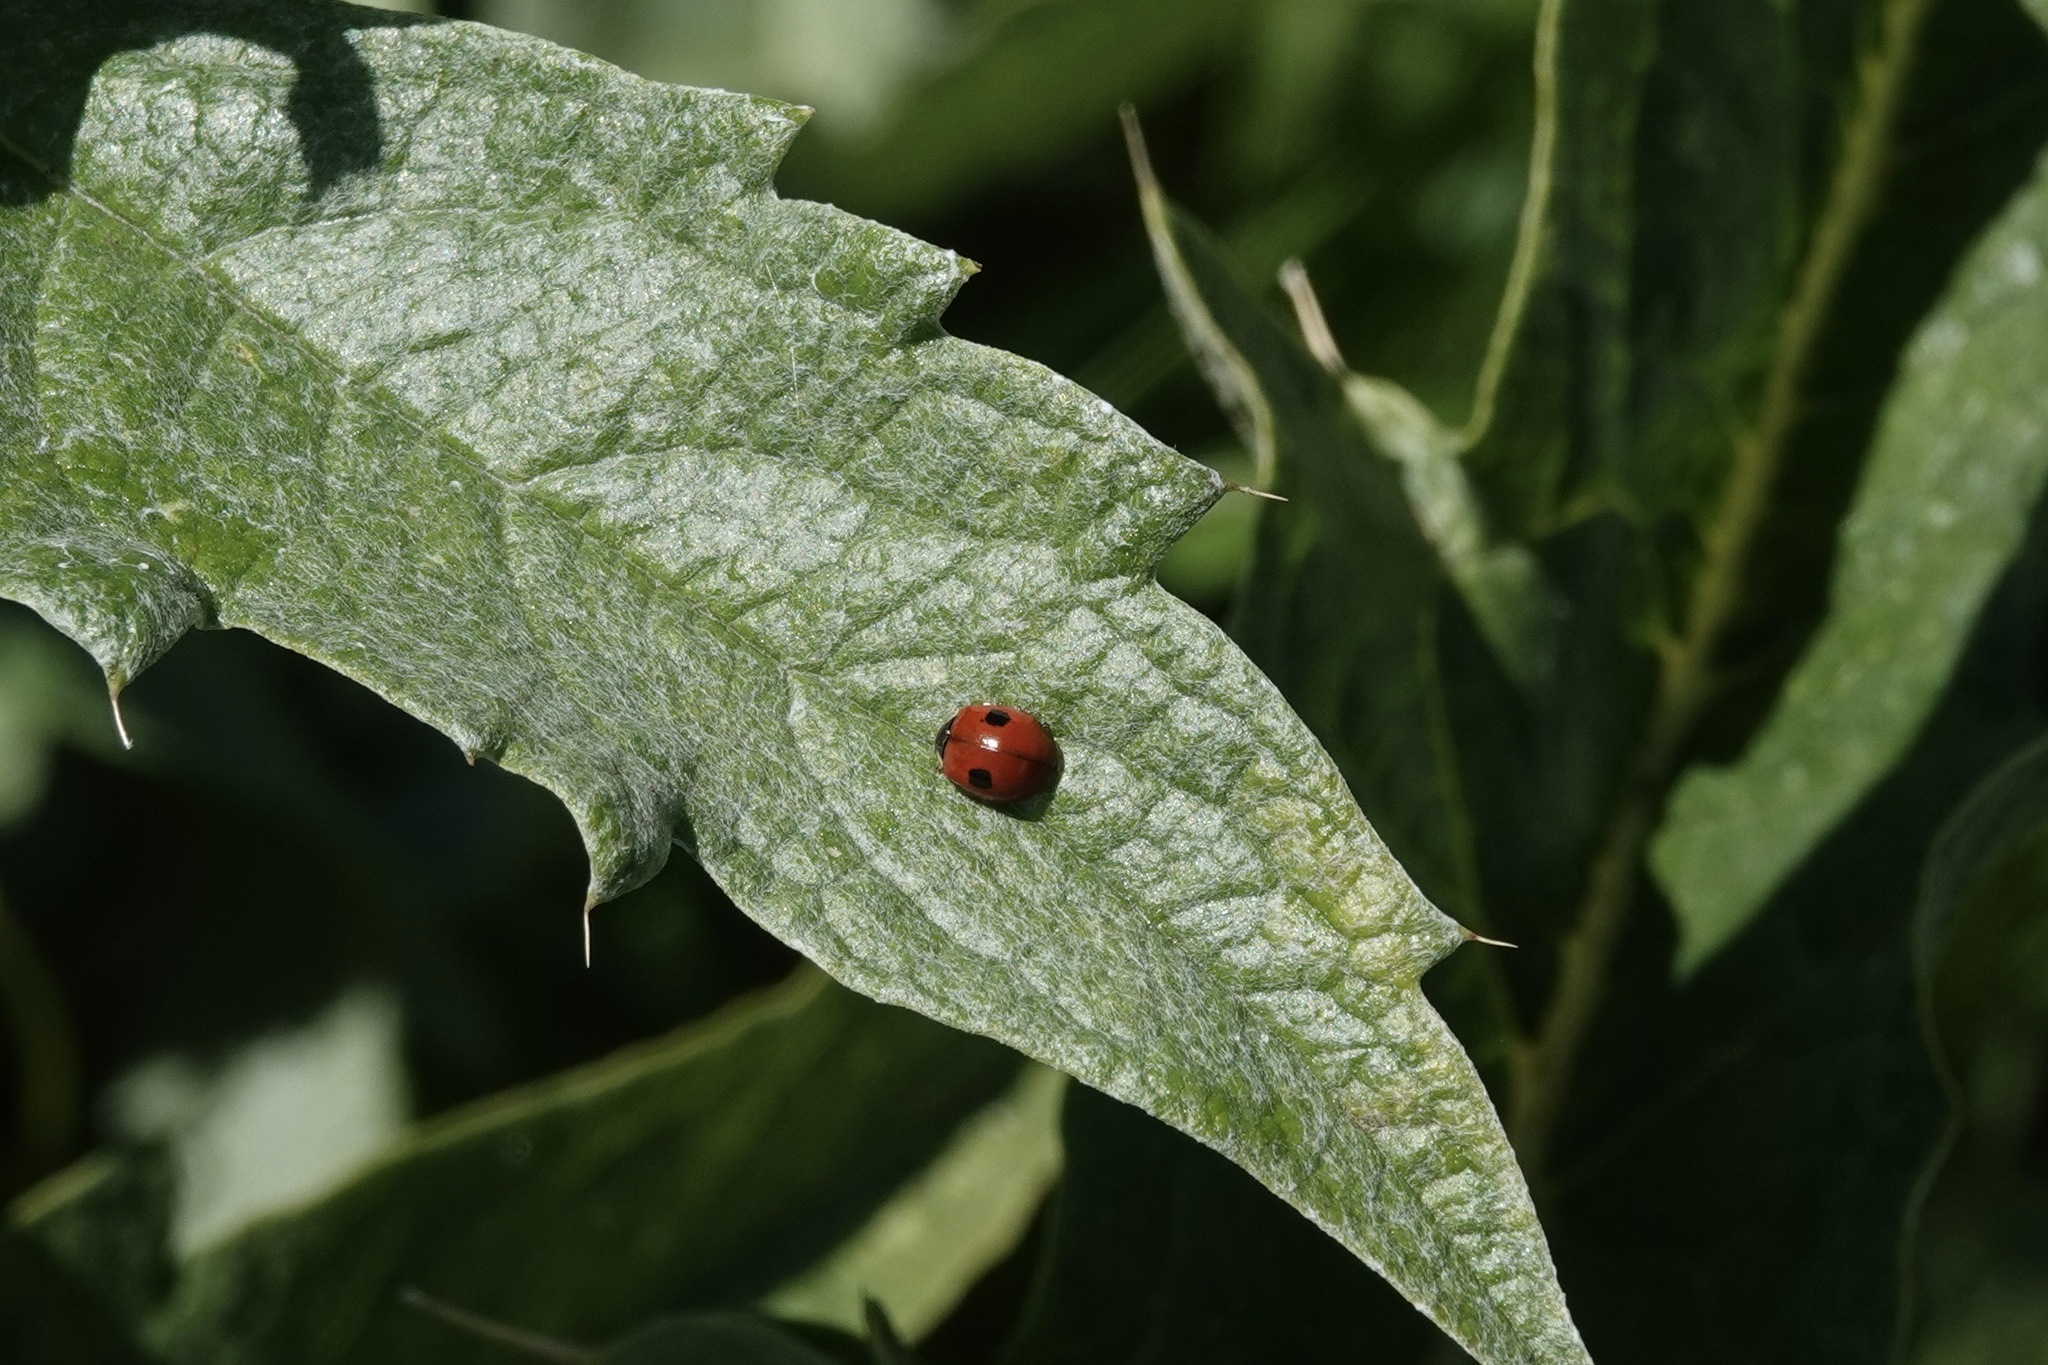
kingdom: Animalia
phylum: Arthropoda
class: Insecta
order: Coleoptera
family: Coccinellidae
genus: Adalia
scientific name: Adalia bipunctata
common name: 2-spot ladybird
